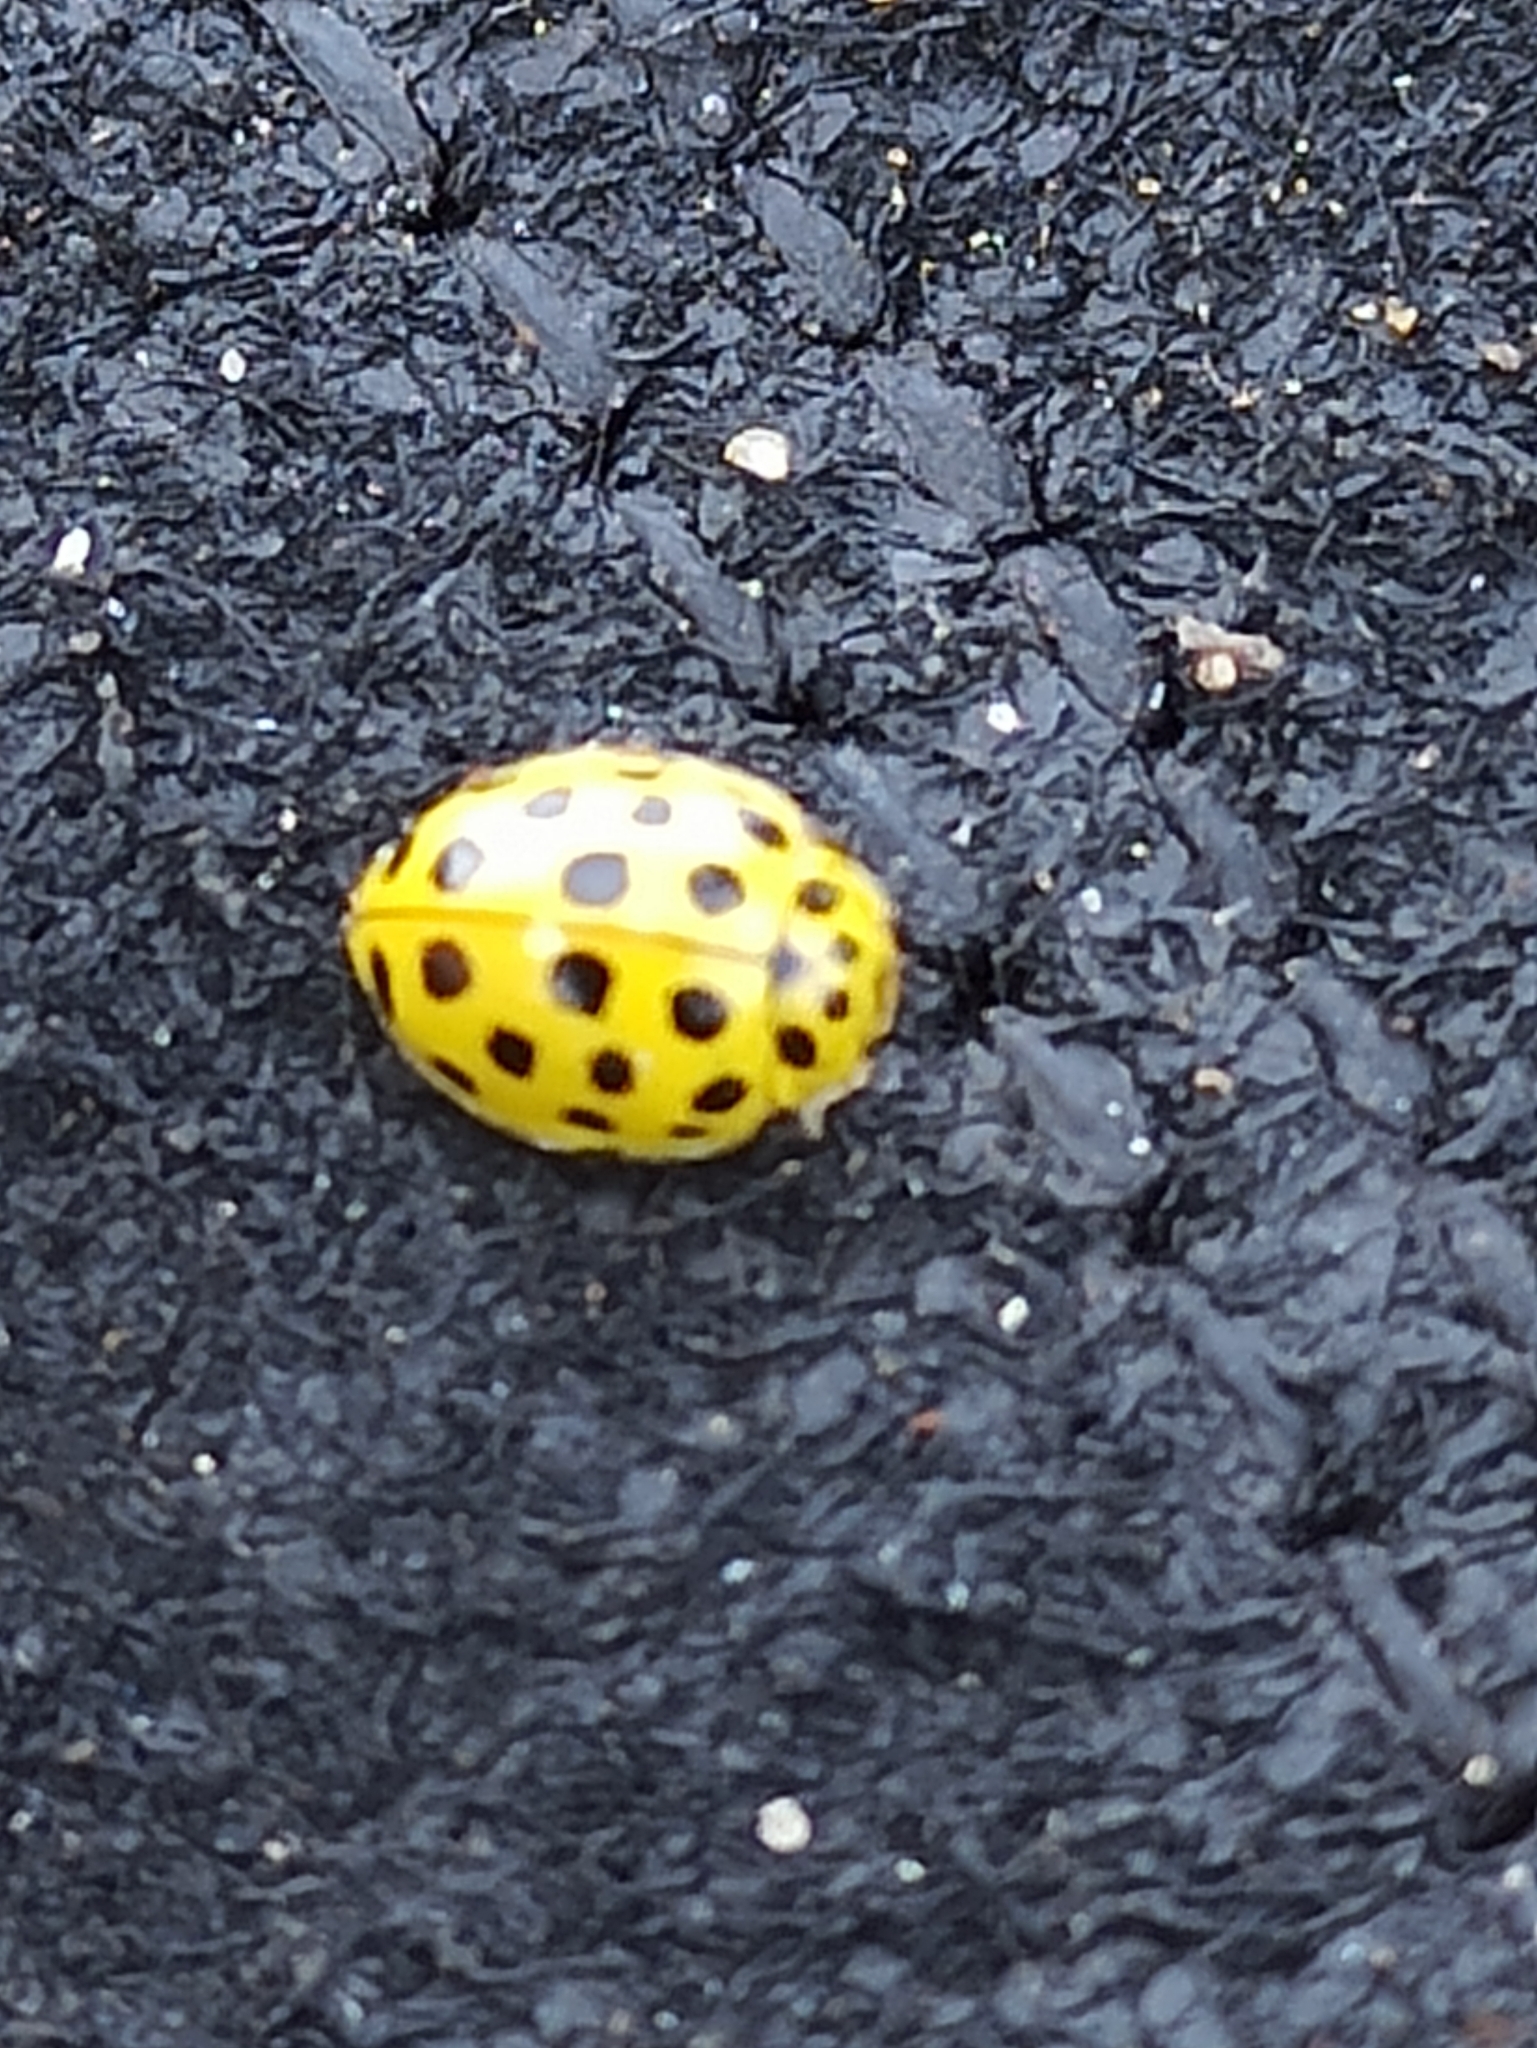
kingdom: Animalia
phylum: Arthropoda
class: Insecta
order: Coleoptera
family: Coccinellidae
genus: Psyllobora
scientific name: Psyllobora vigintiduopunctata
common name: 22-spot ladybird
